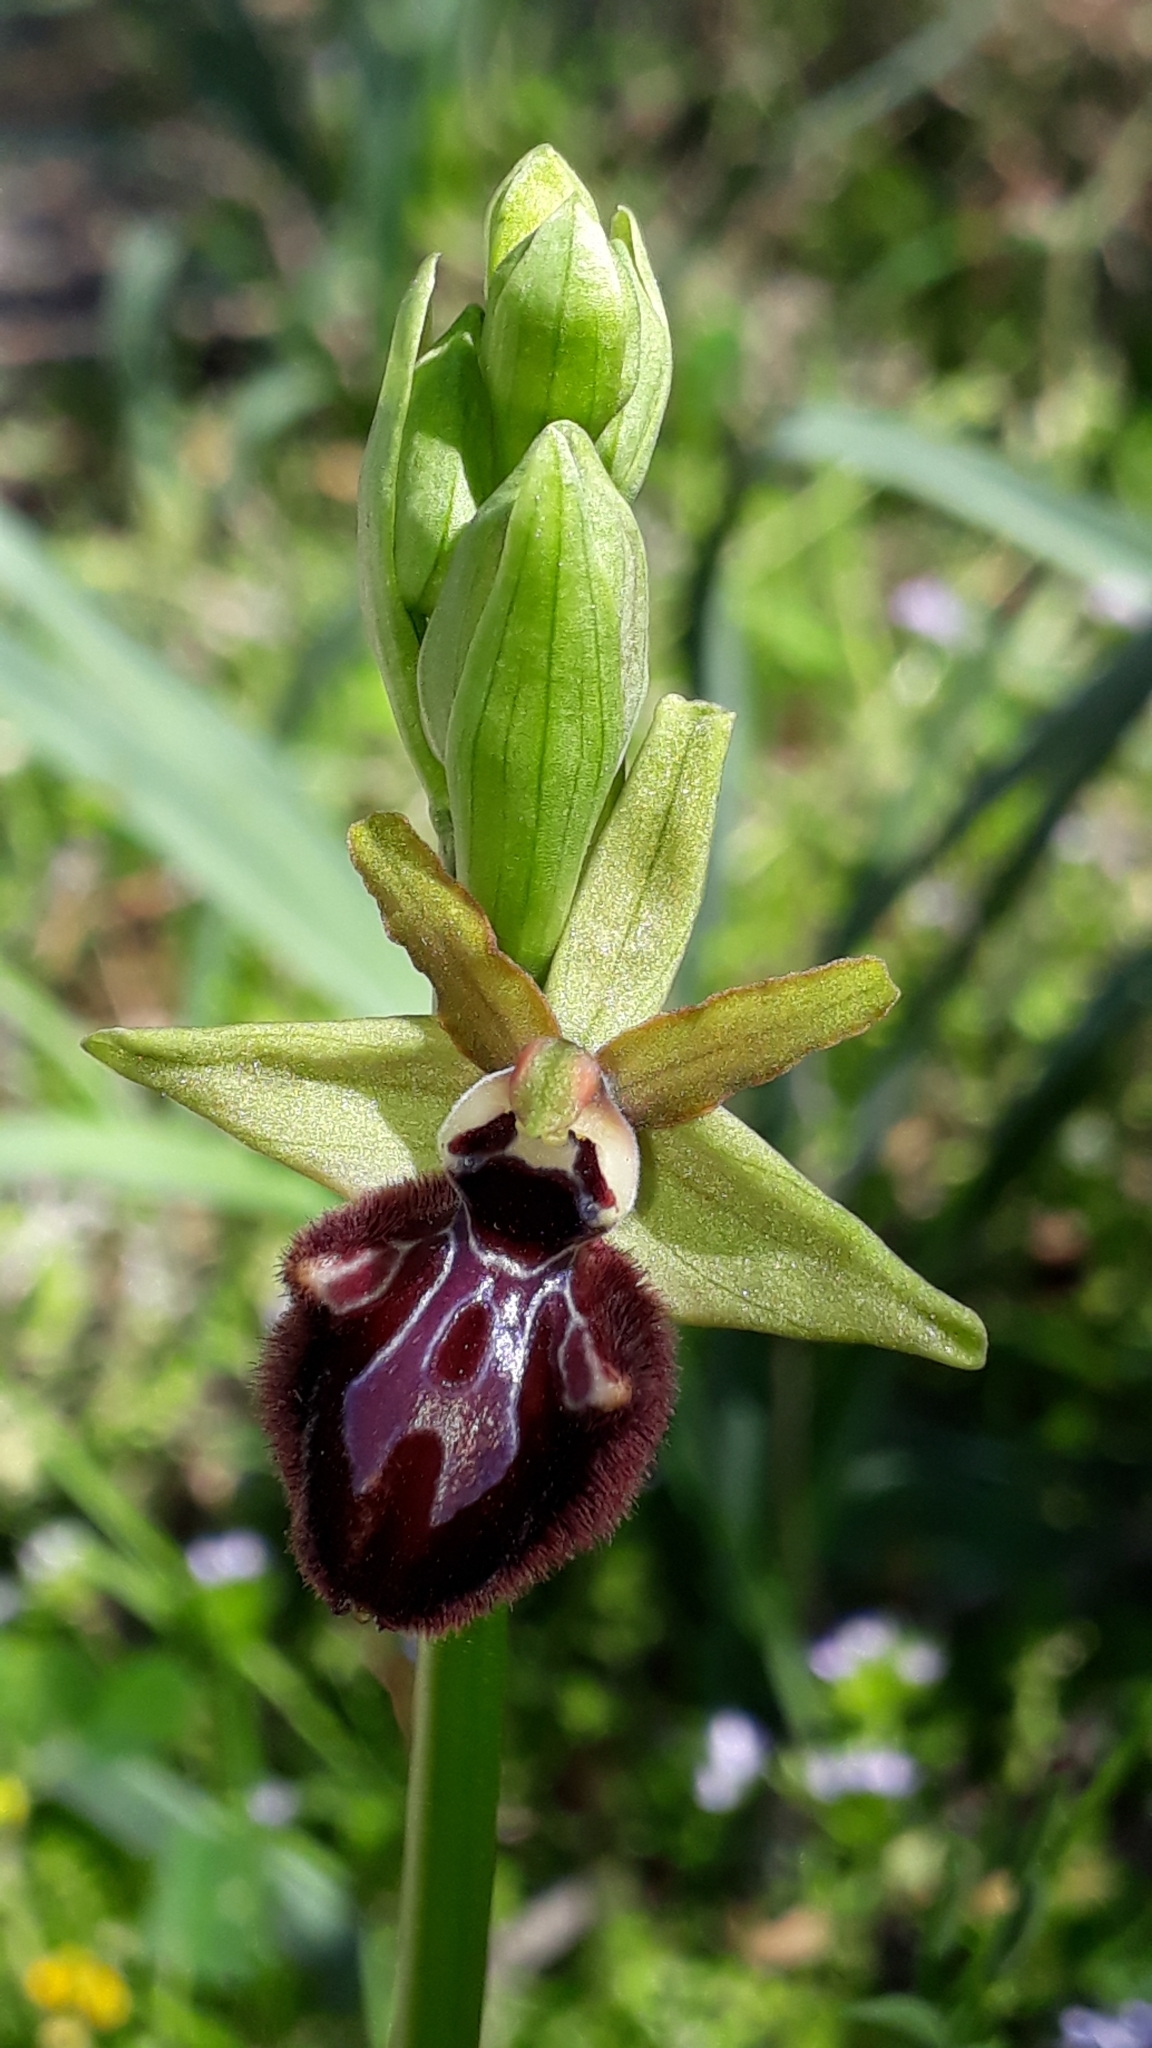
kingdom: Plantae
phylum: Tracheophyta
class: Liliopsida
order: Asparagales
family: Orchidaceae
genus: Ophrys
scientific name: Ophrys sphegodes
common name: Early spider-orchid
